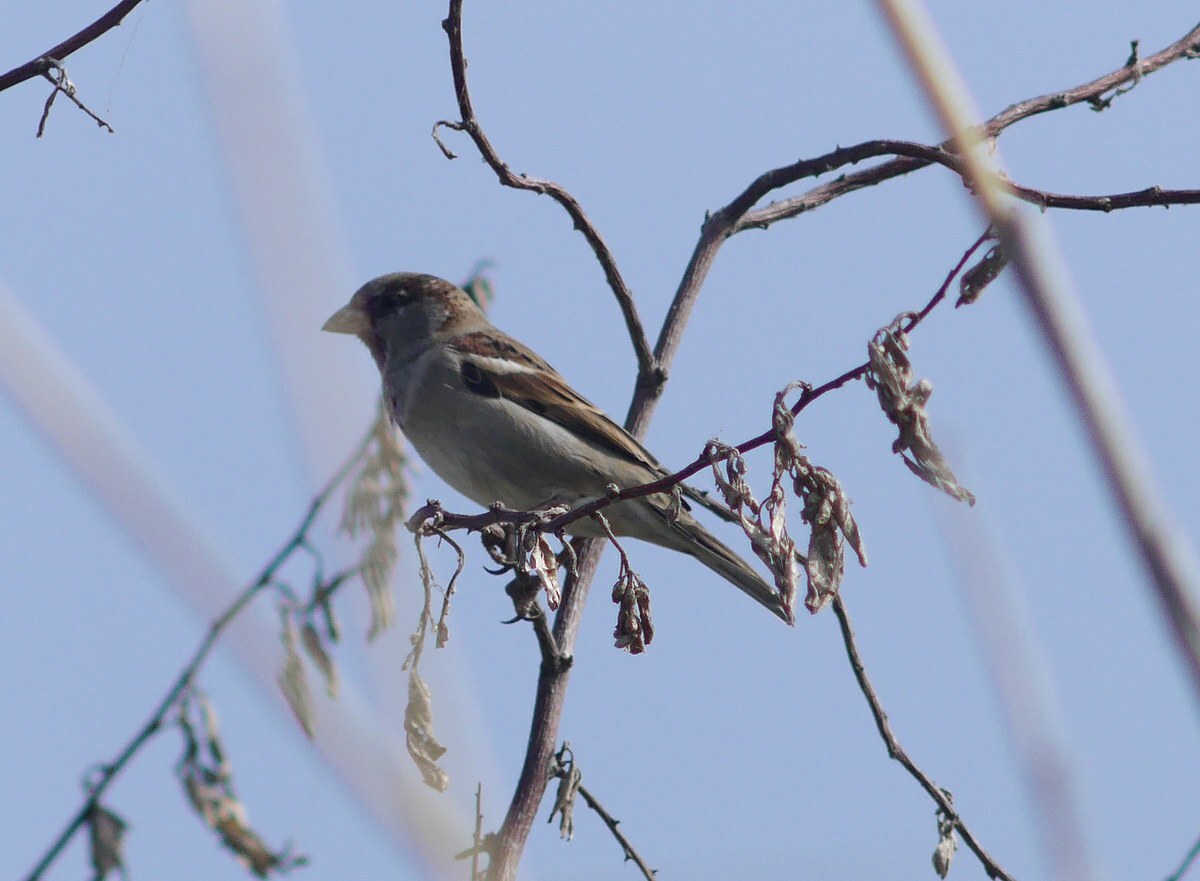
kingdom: Animalia
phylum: Chordata
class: Aves
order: Passeriformes
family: Passeridae
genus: Passer
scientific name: Passer domesticus
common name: House sparrow
